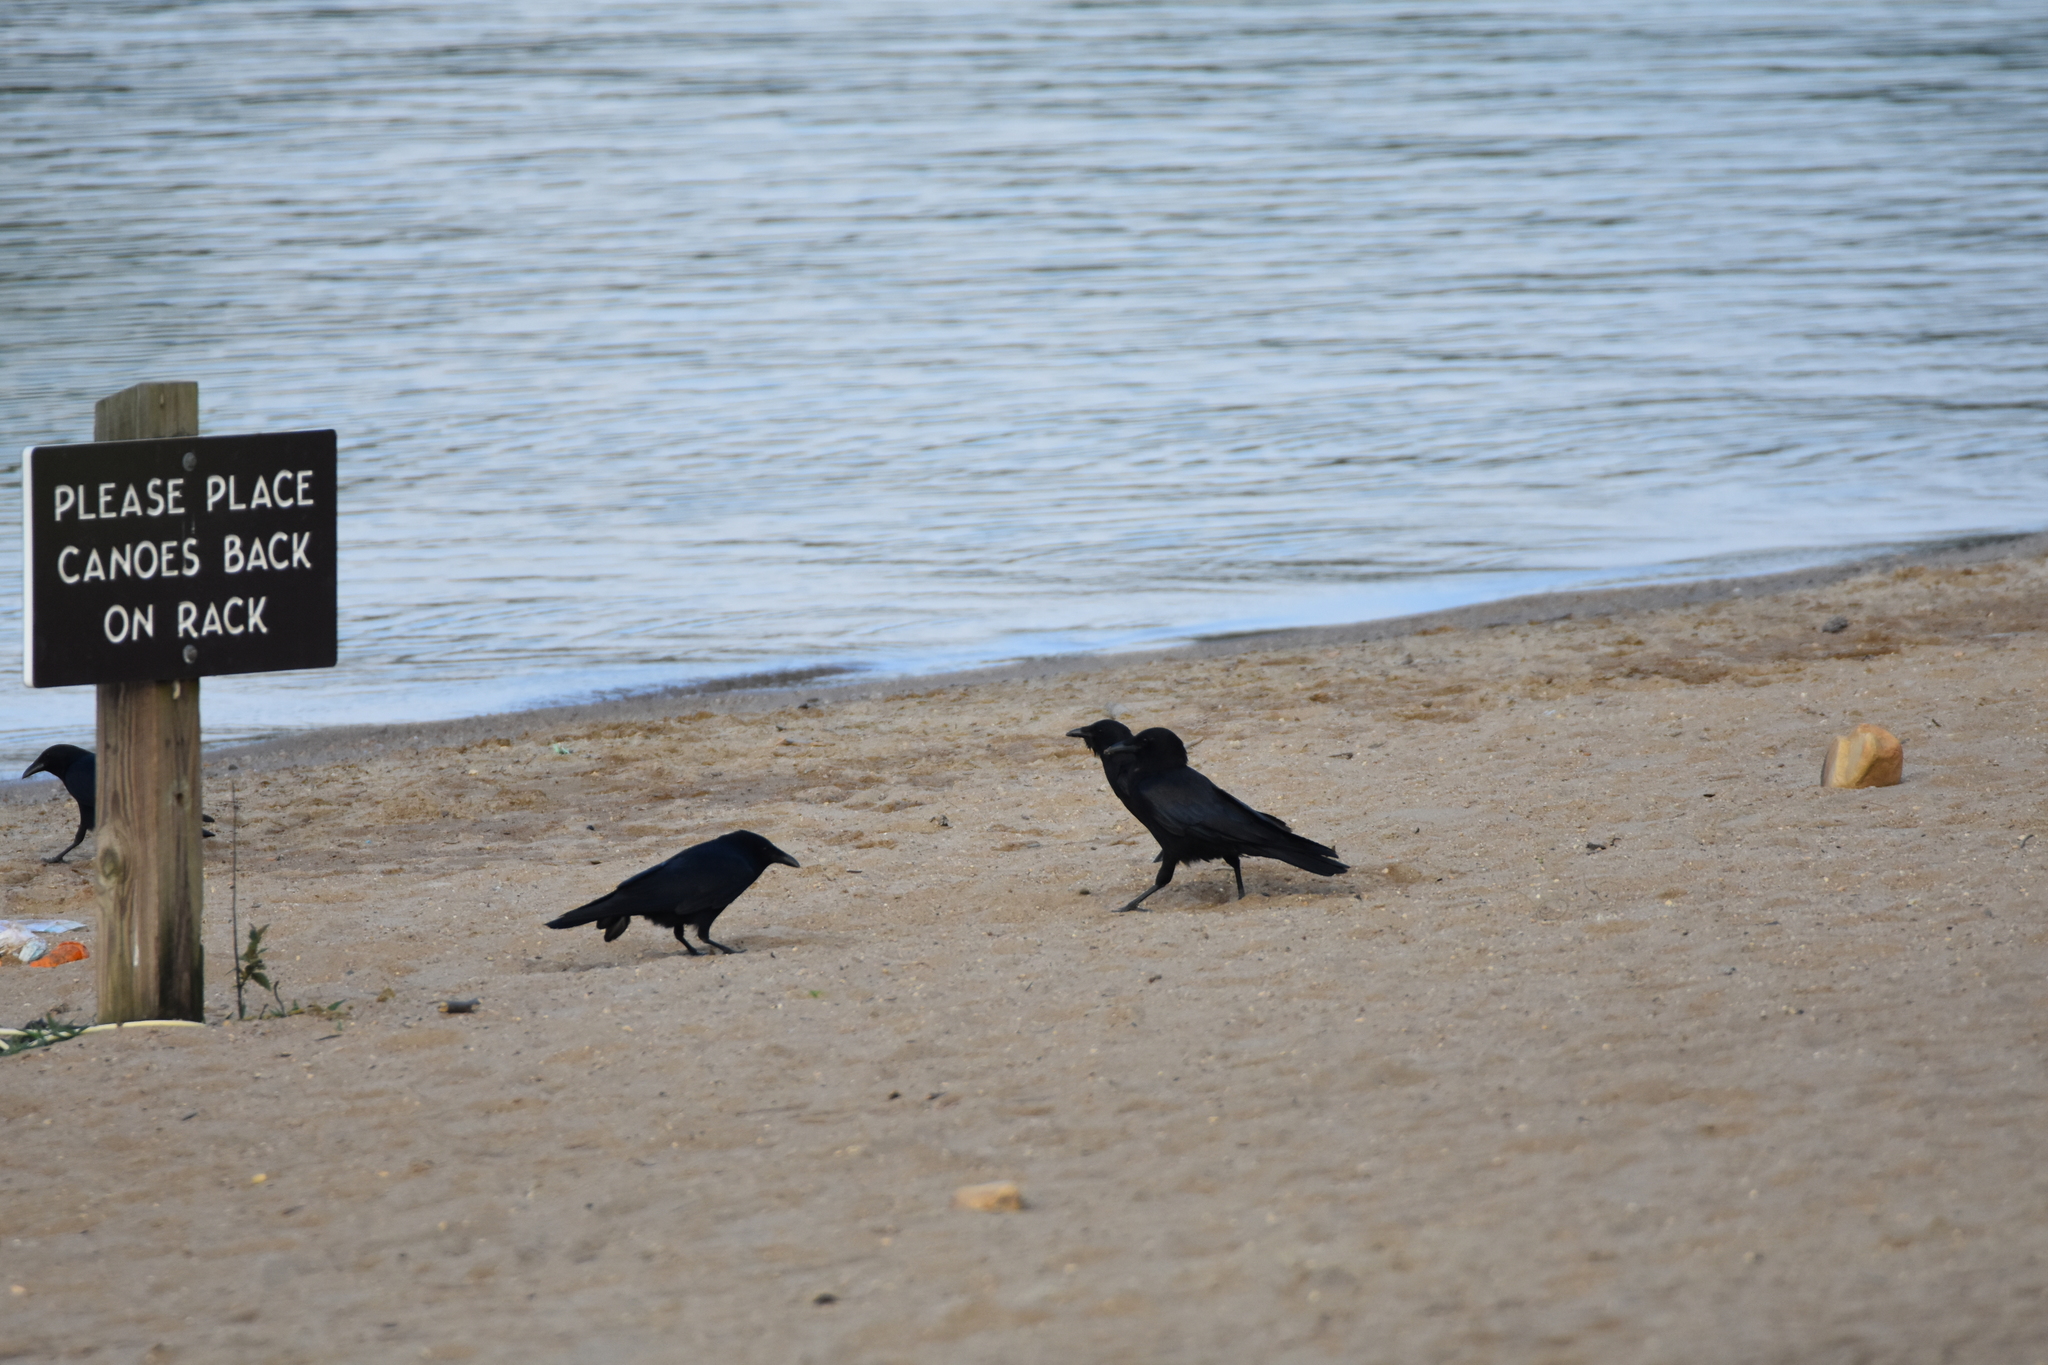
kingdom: Animalia
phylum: Chordata
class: Aves
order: Passeriformes
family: Corvidae
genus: Corvus
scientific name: Corvus brachyrhynchos
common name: American crow
